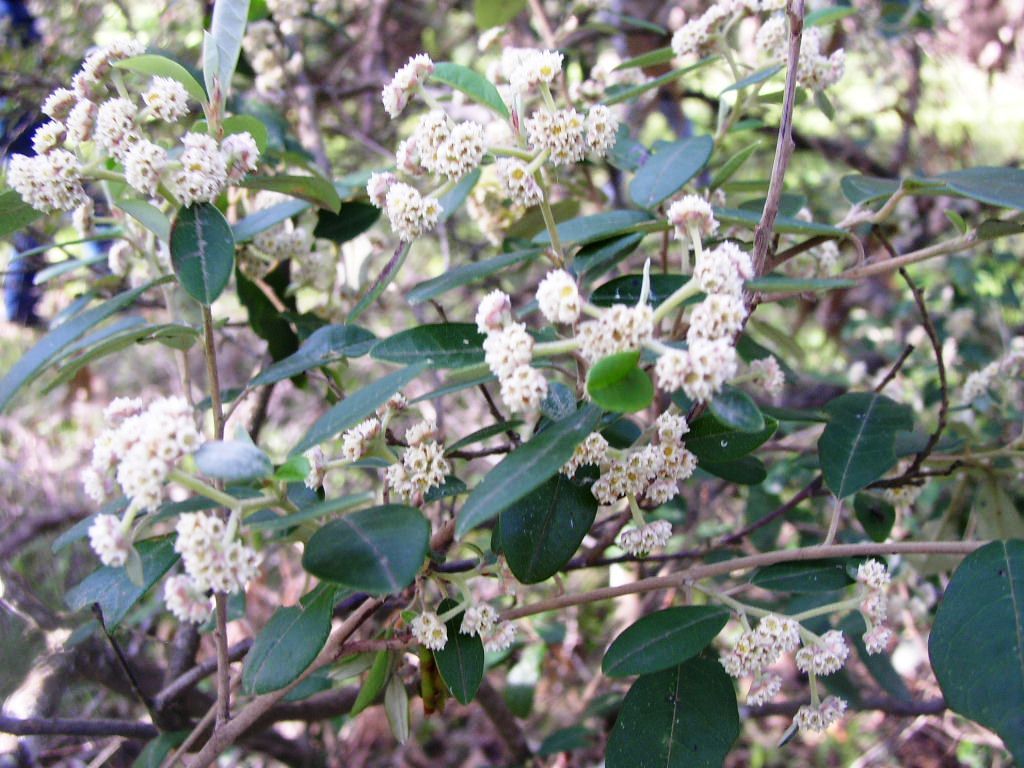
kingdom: Plantae
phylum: Tracheophyta
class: Magnoliopsida
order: Rosales
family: Rhamnaceae
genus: Spyridium
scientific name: Spyridium globulosum
